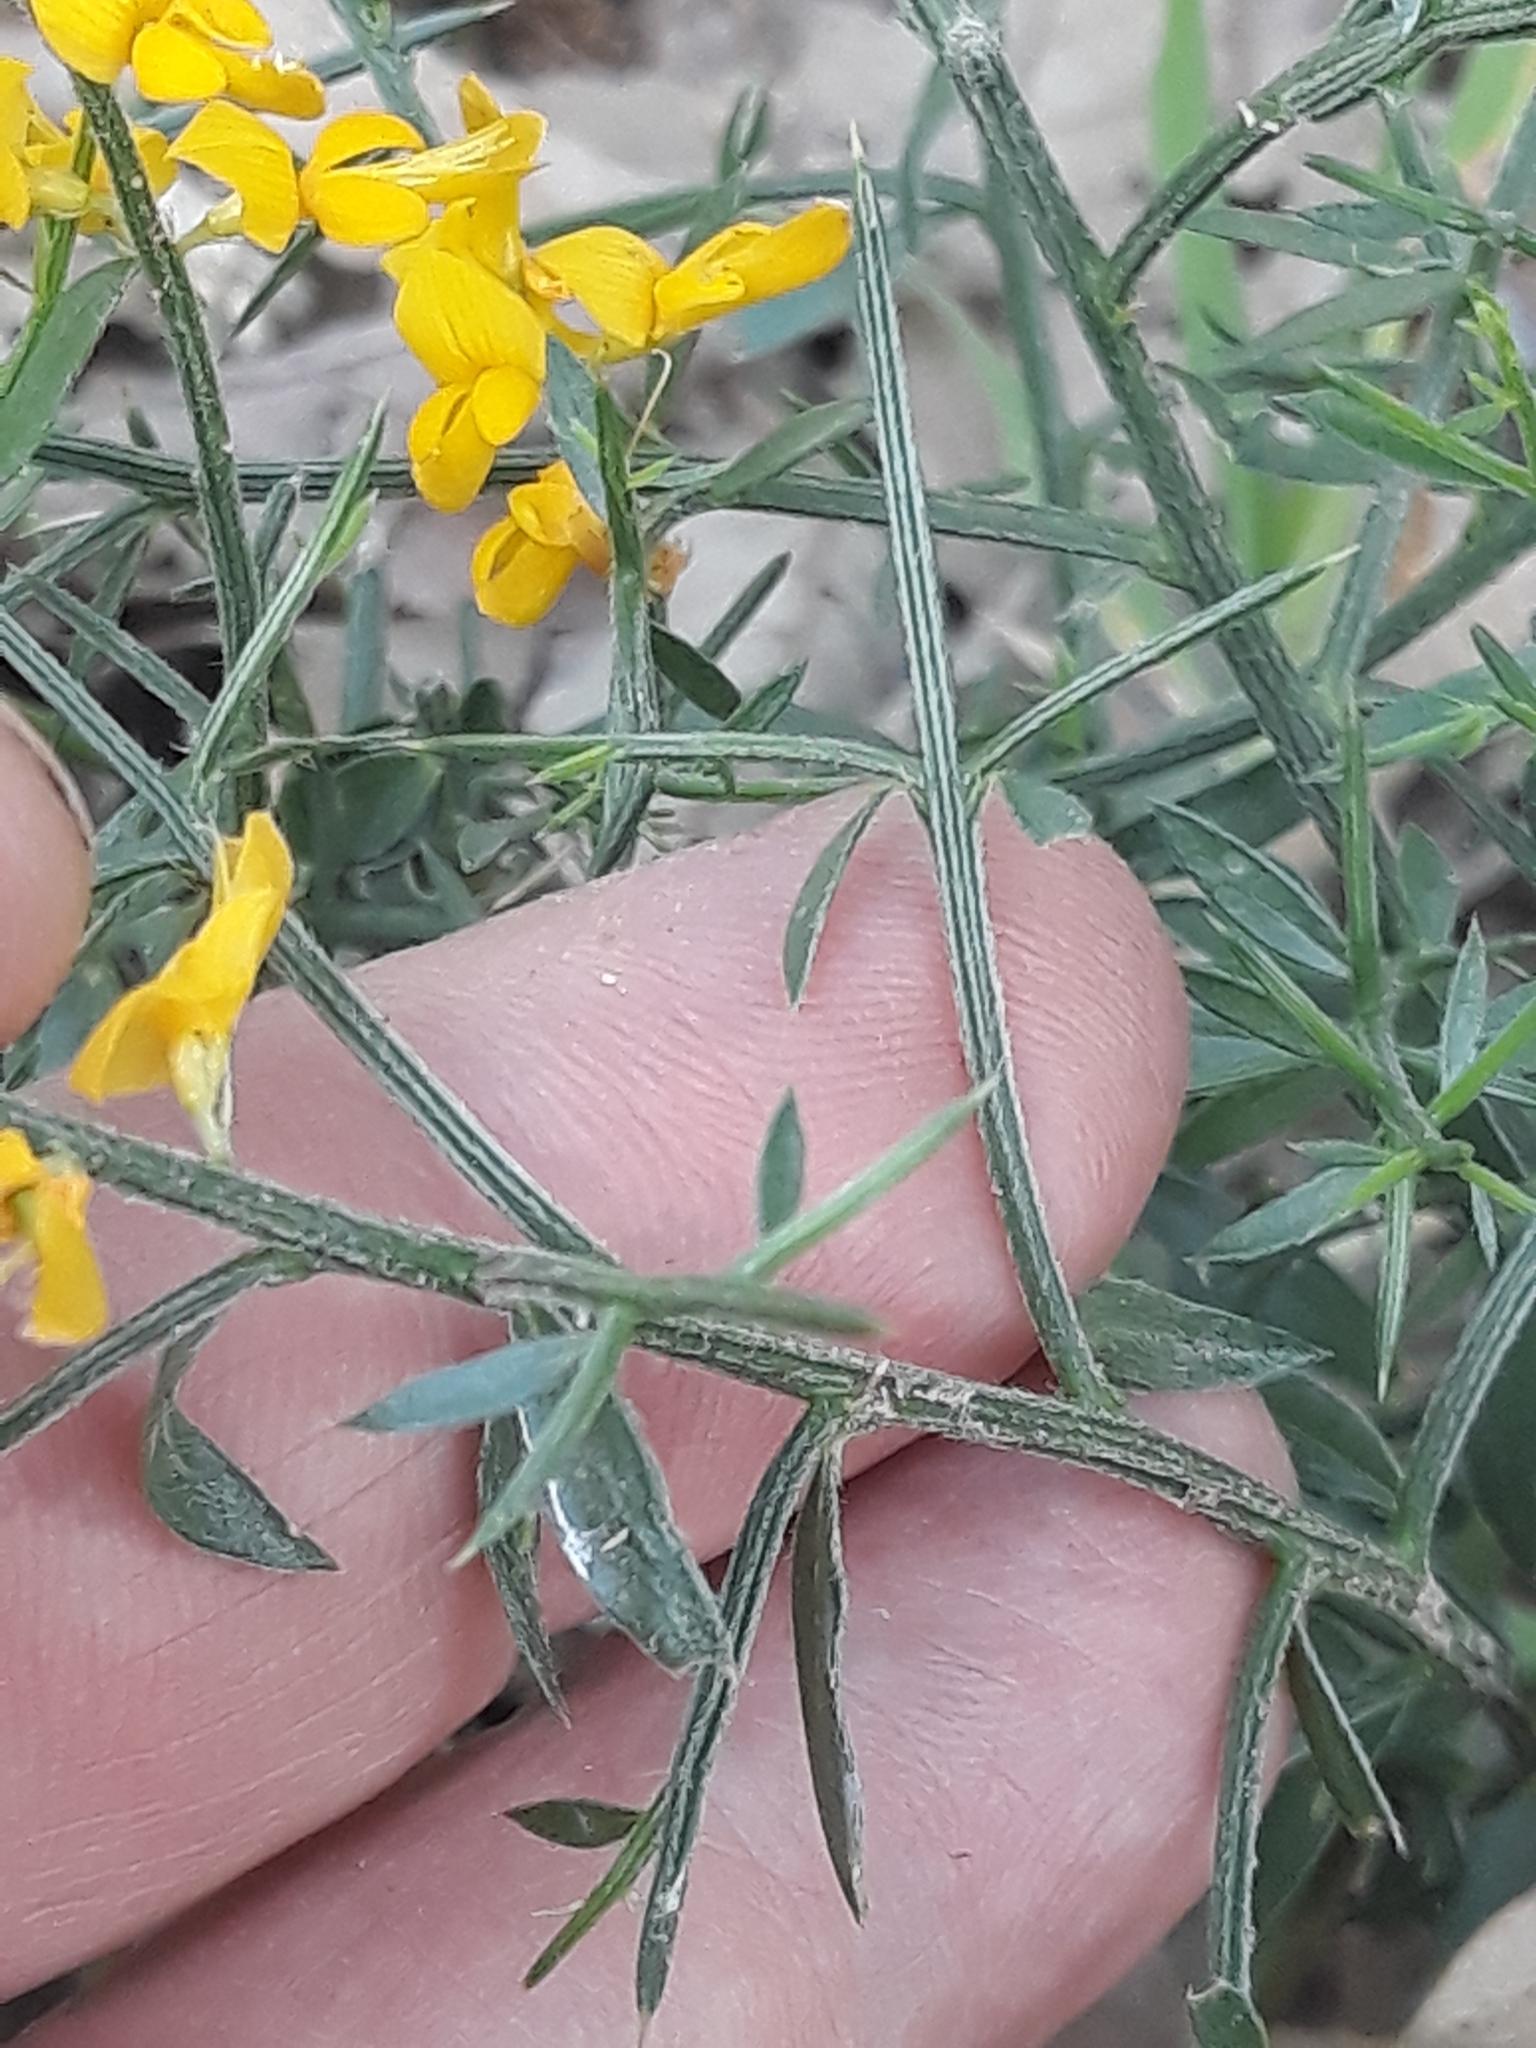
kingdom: Plantae
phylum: Tracheophyta
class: Magnoliopsida
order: Fabales
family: Fabaceae
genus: Genista
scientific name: Genista tricuspidata
